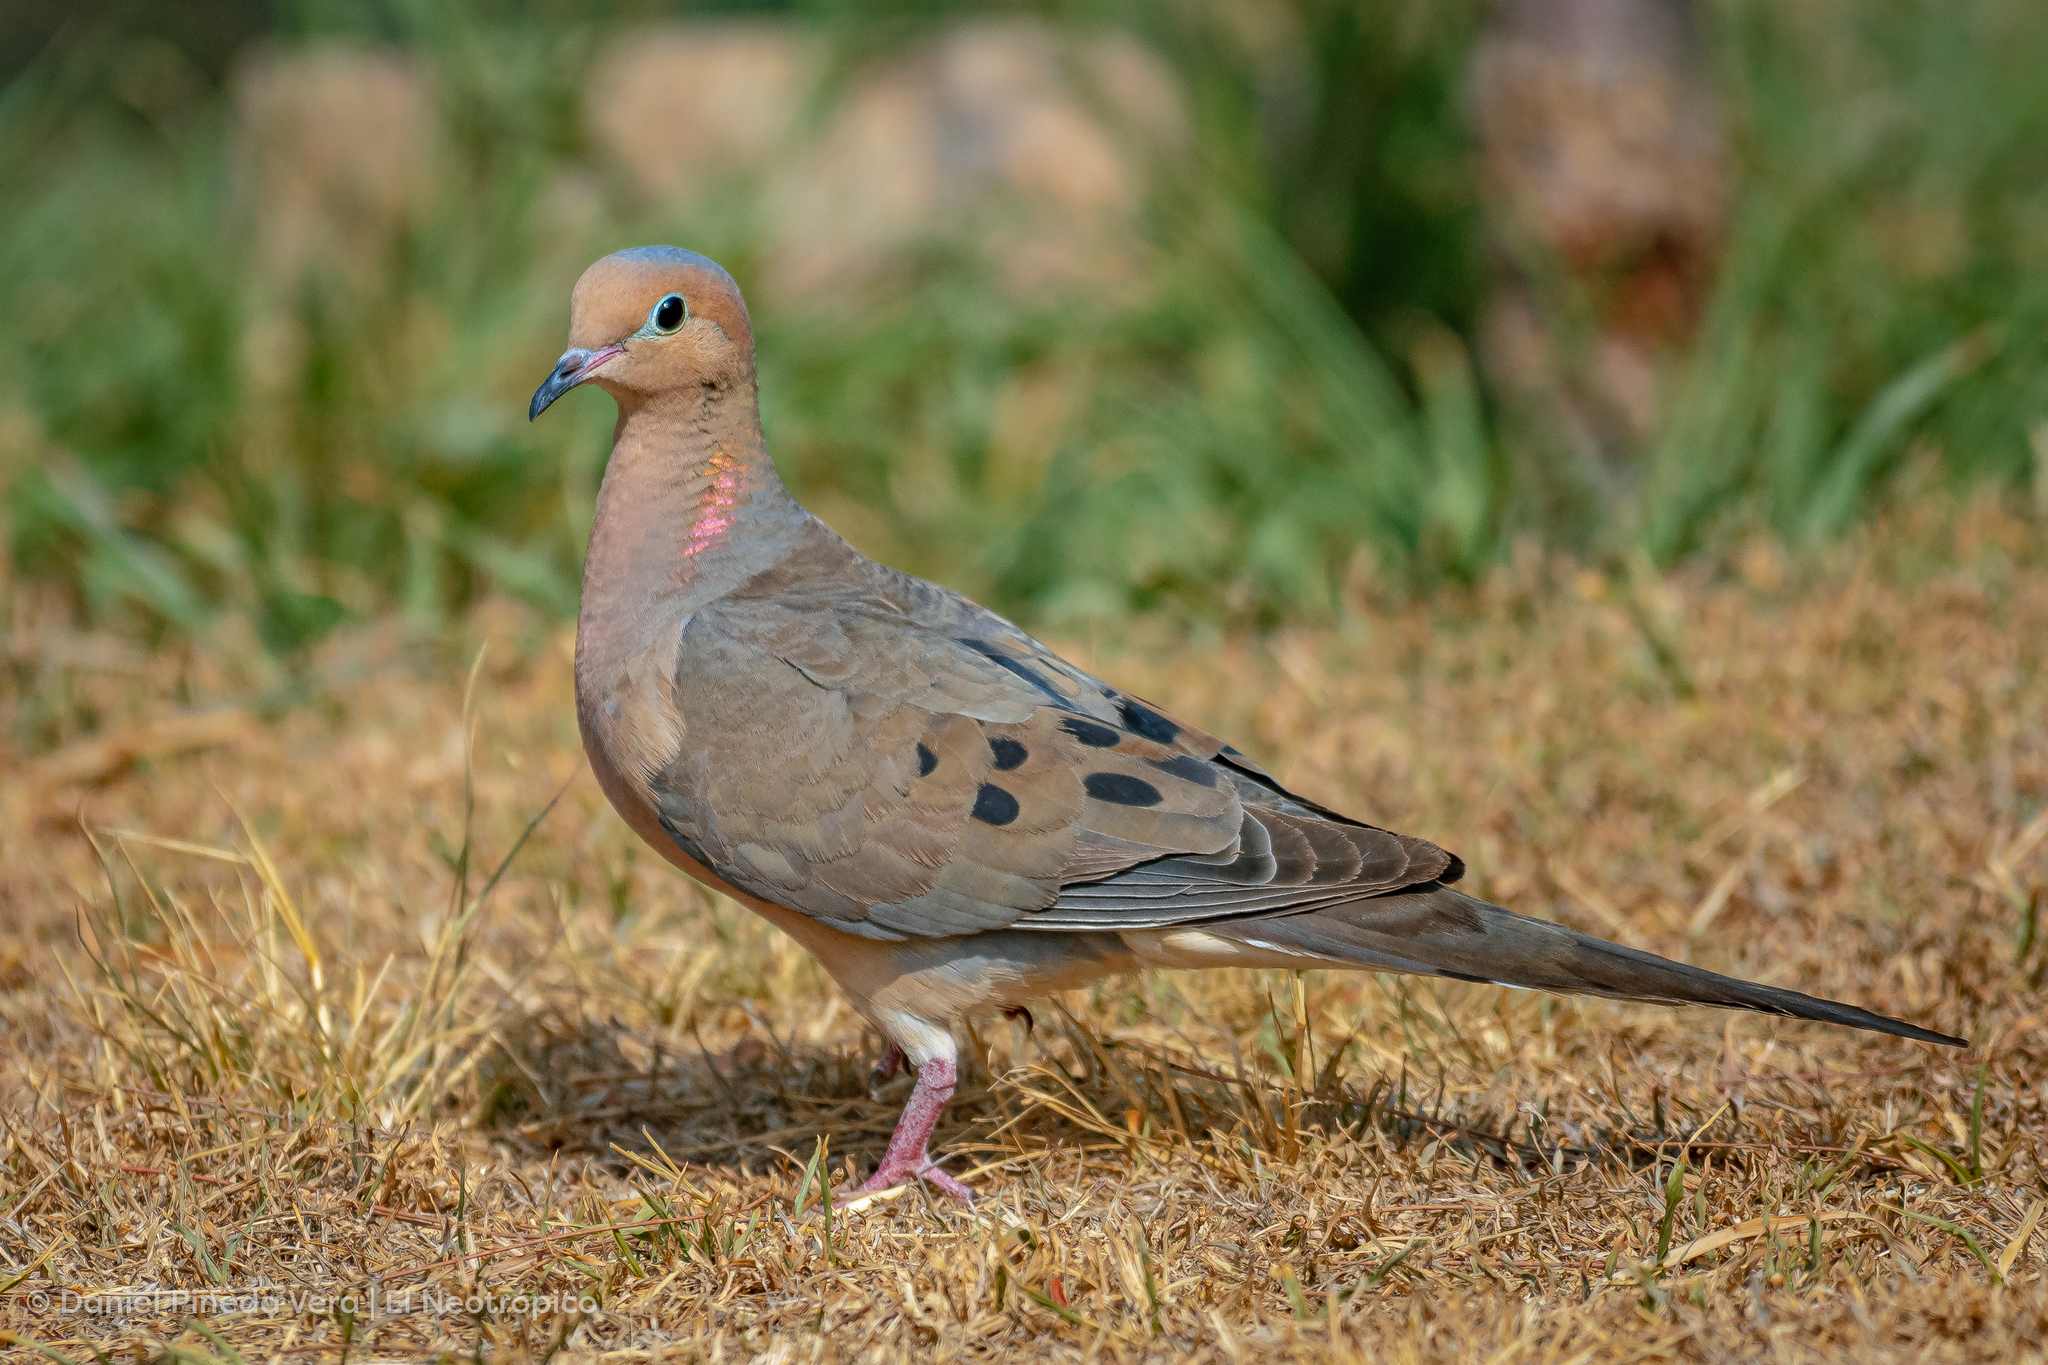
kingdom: Animalia
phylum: Chordata
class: Aves
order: Columbiformes
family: Columbidae
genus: Zenaida
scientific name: Zenaida macroura
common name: Mourning dove
